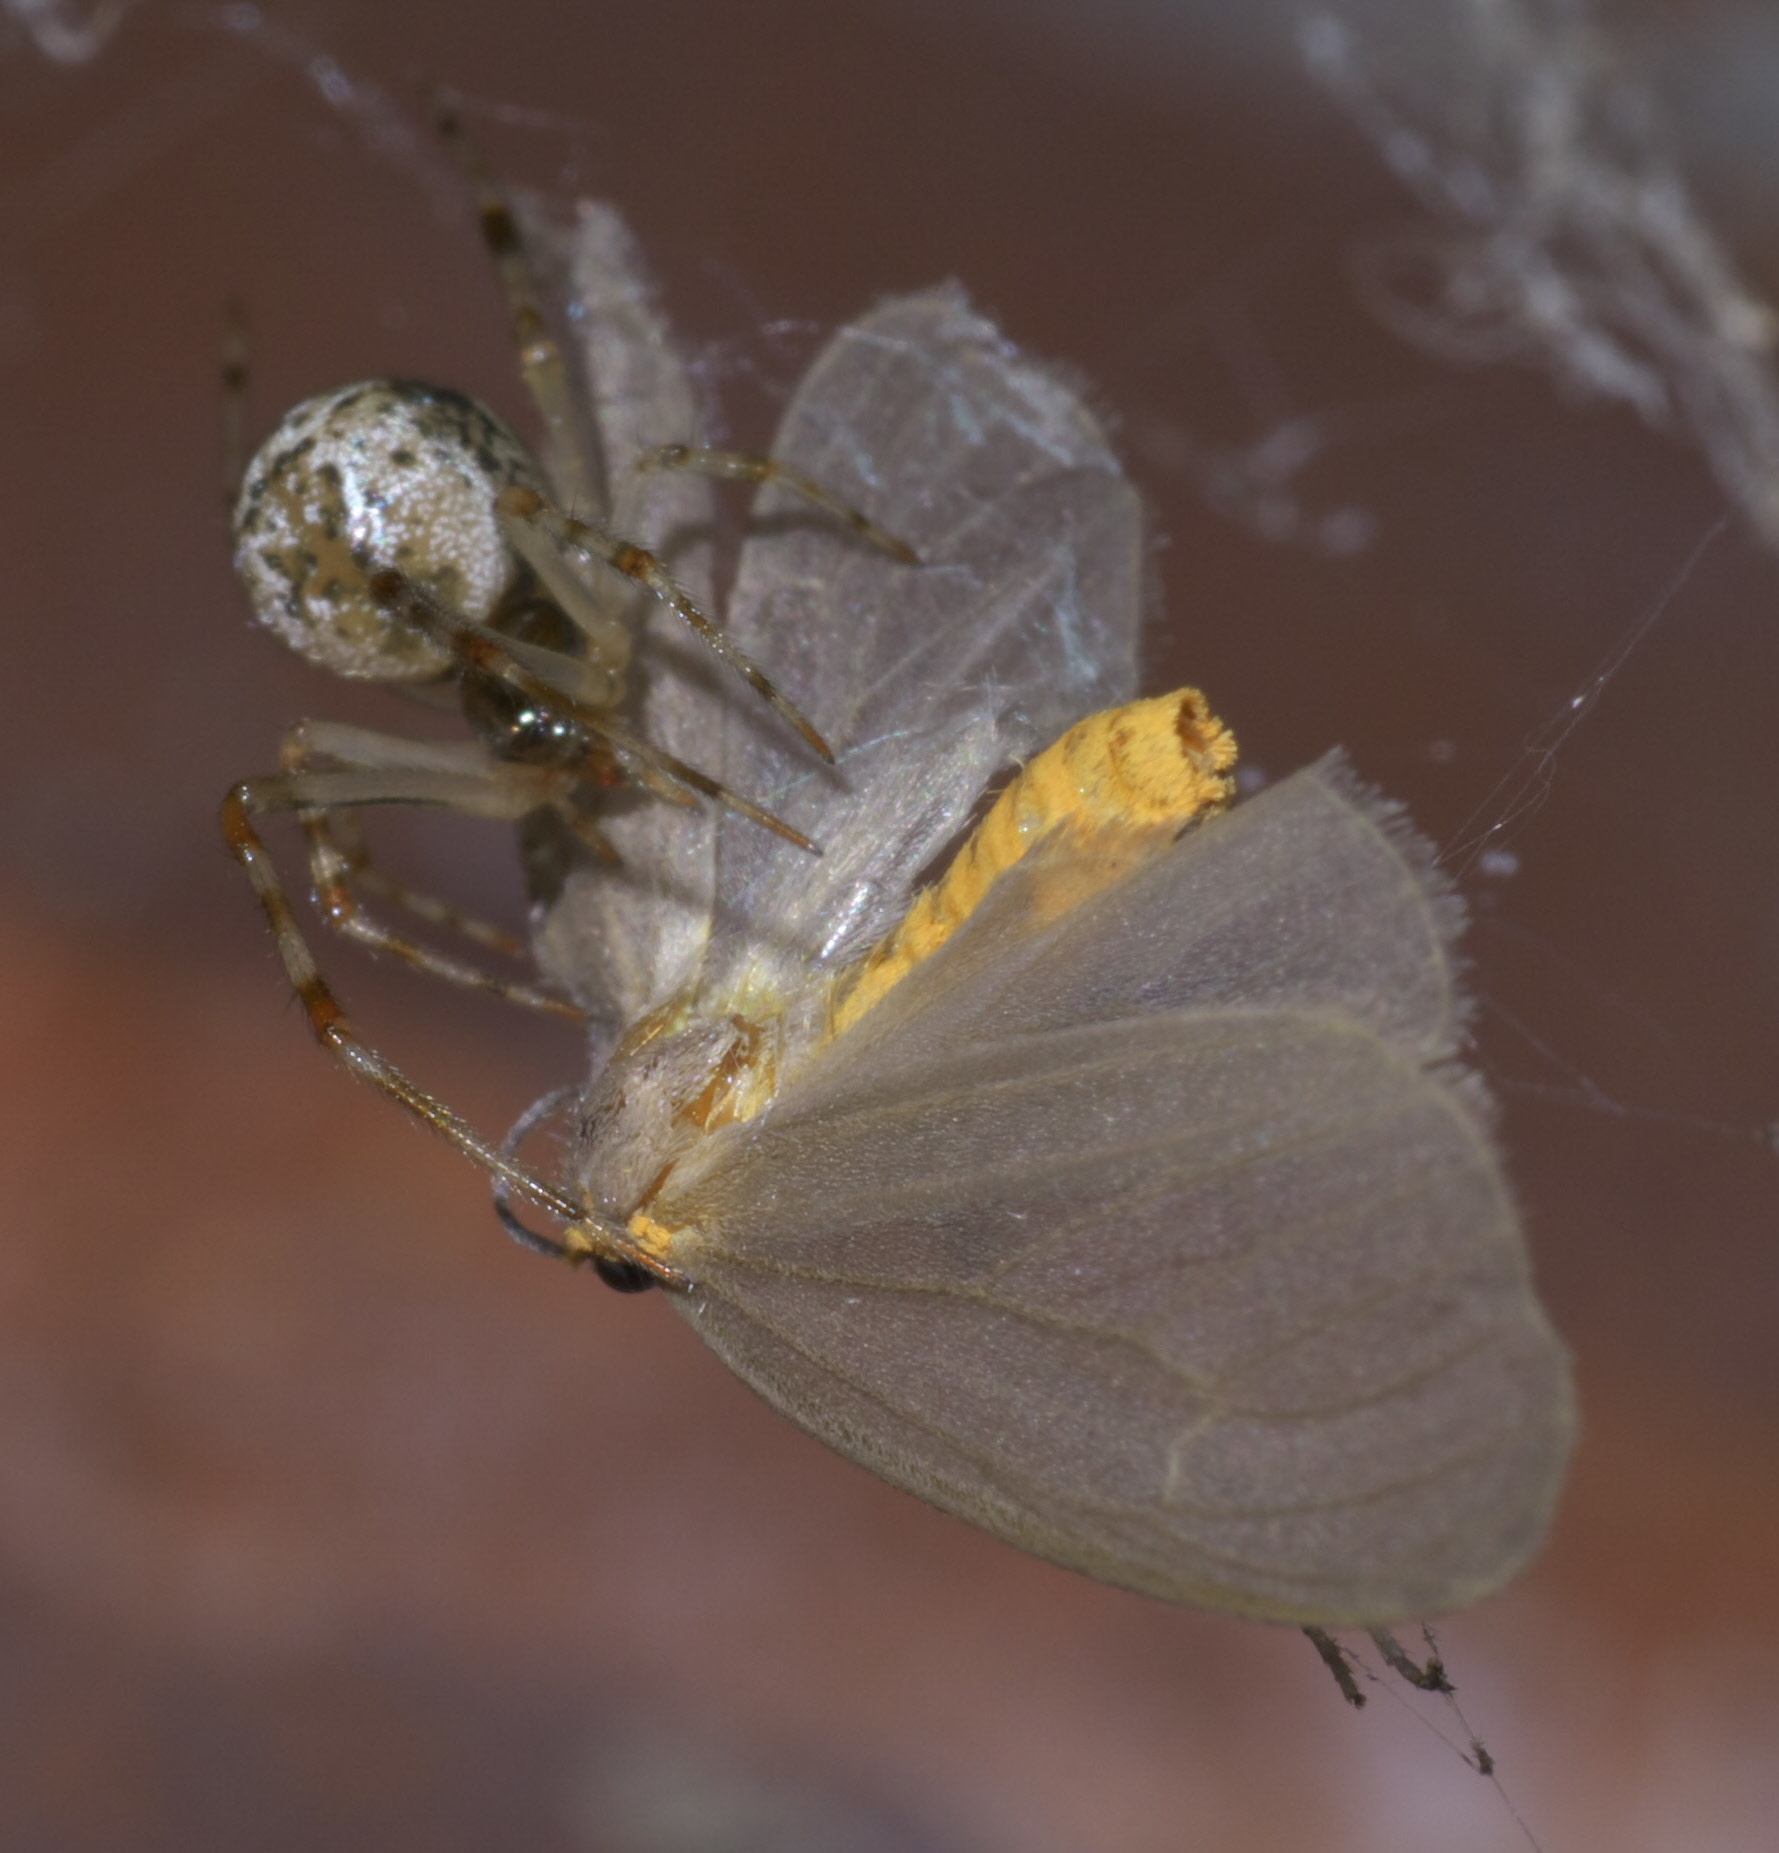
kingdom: Animalia
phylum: Arthropoda
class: Insecta
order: Lepidoptera
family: Erebidae
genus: Pagara
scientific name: Pagara simplex
